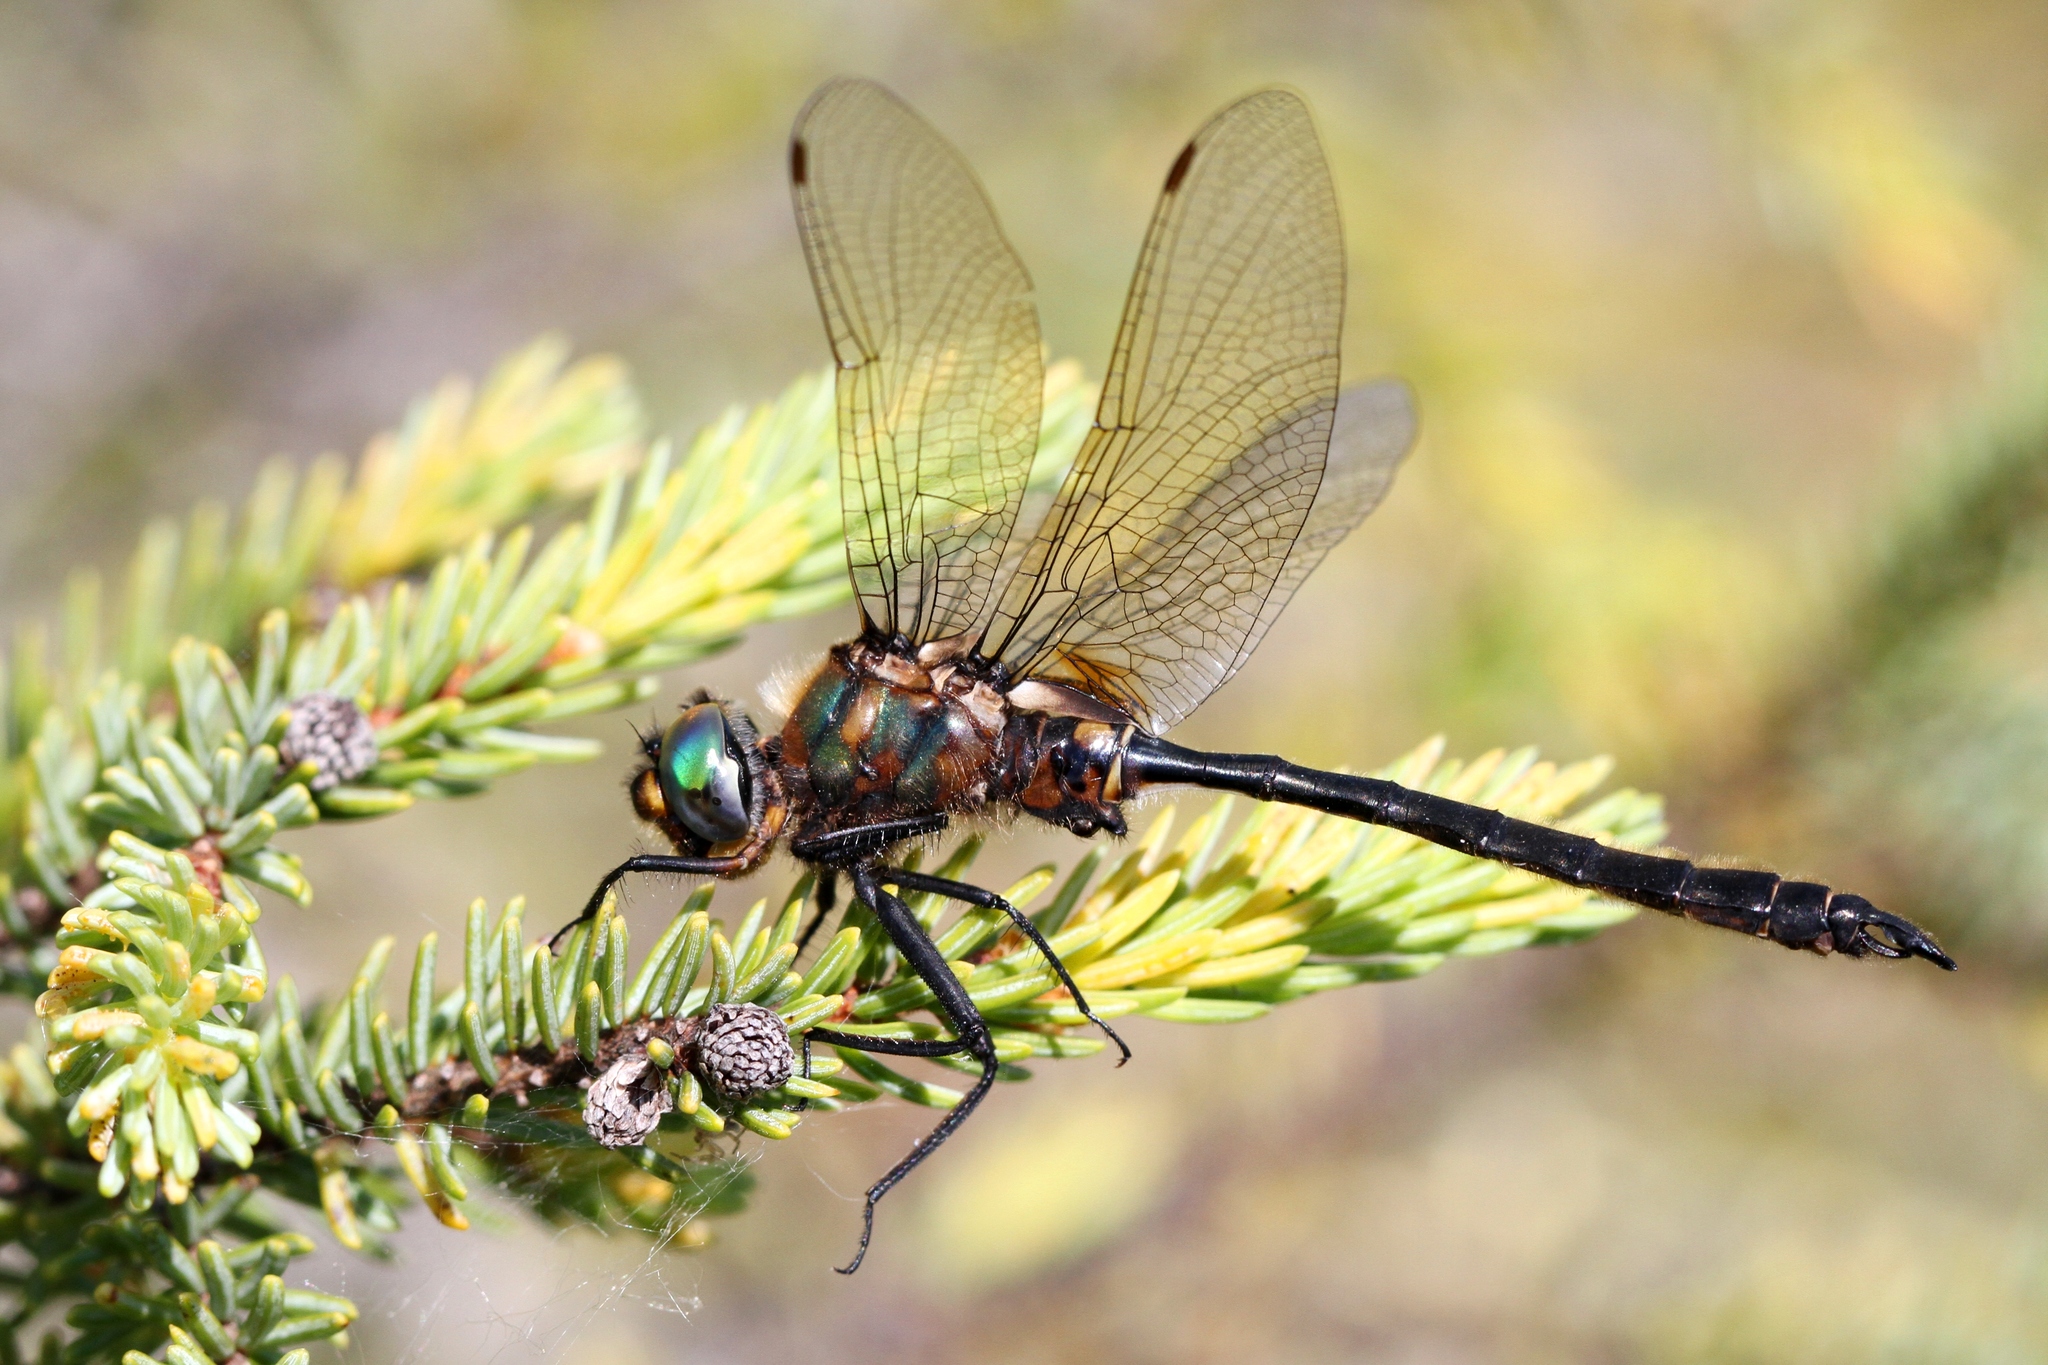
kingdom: Animalia
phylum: Arthropoda
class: Insecta
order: Odonata
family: Corduliidae
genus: Somatochlora
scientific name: Somatochlora kennedyi
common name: Kennedy's emerald
